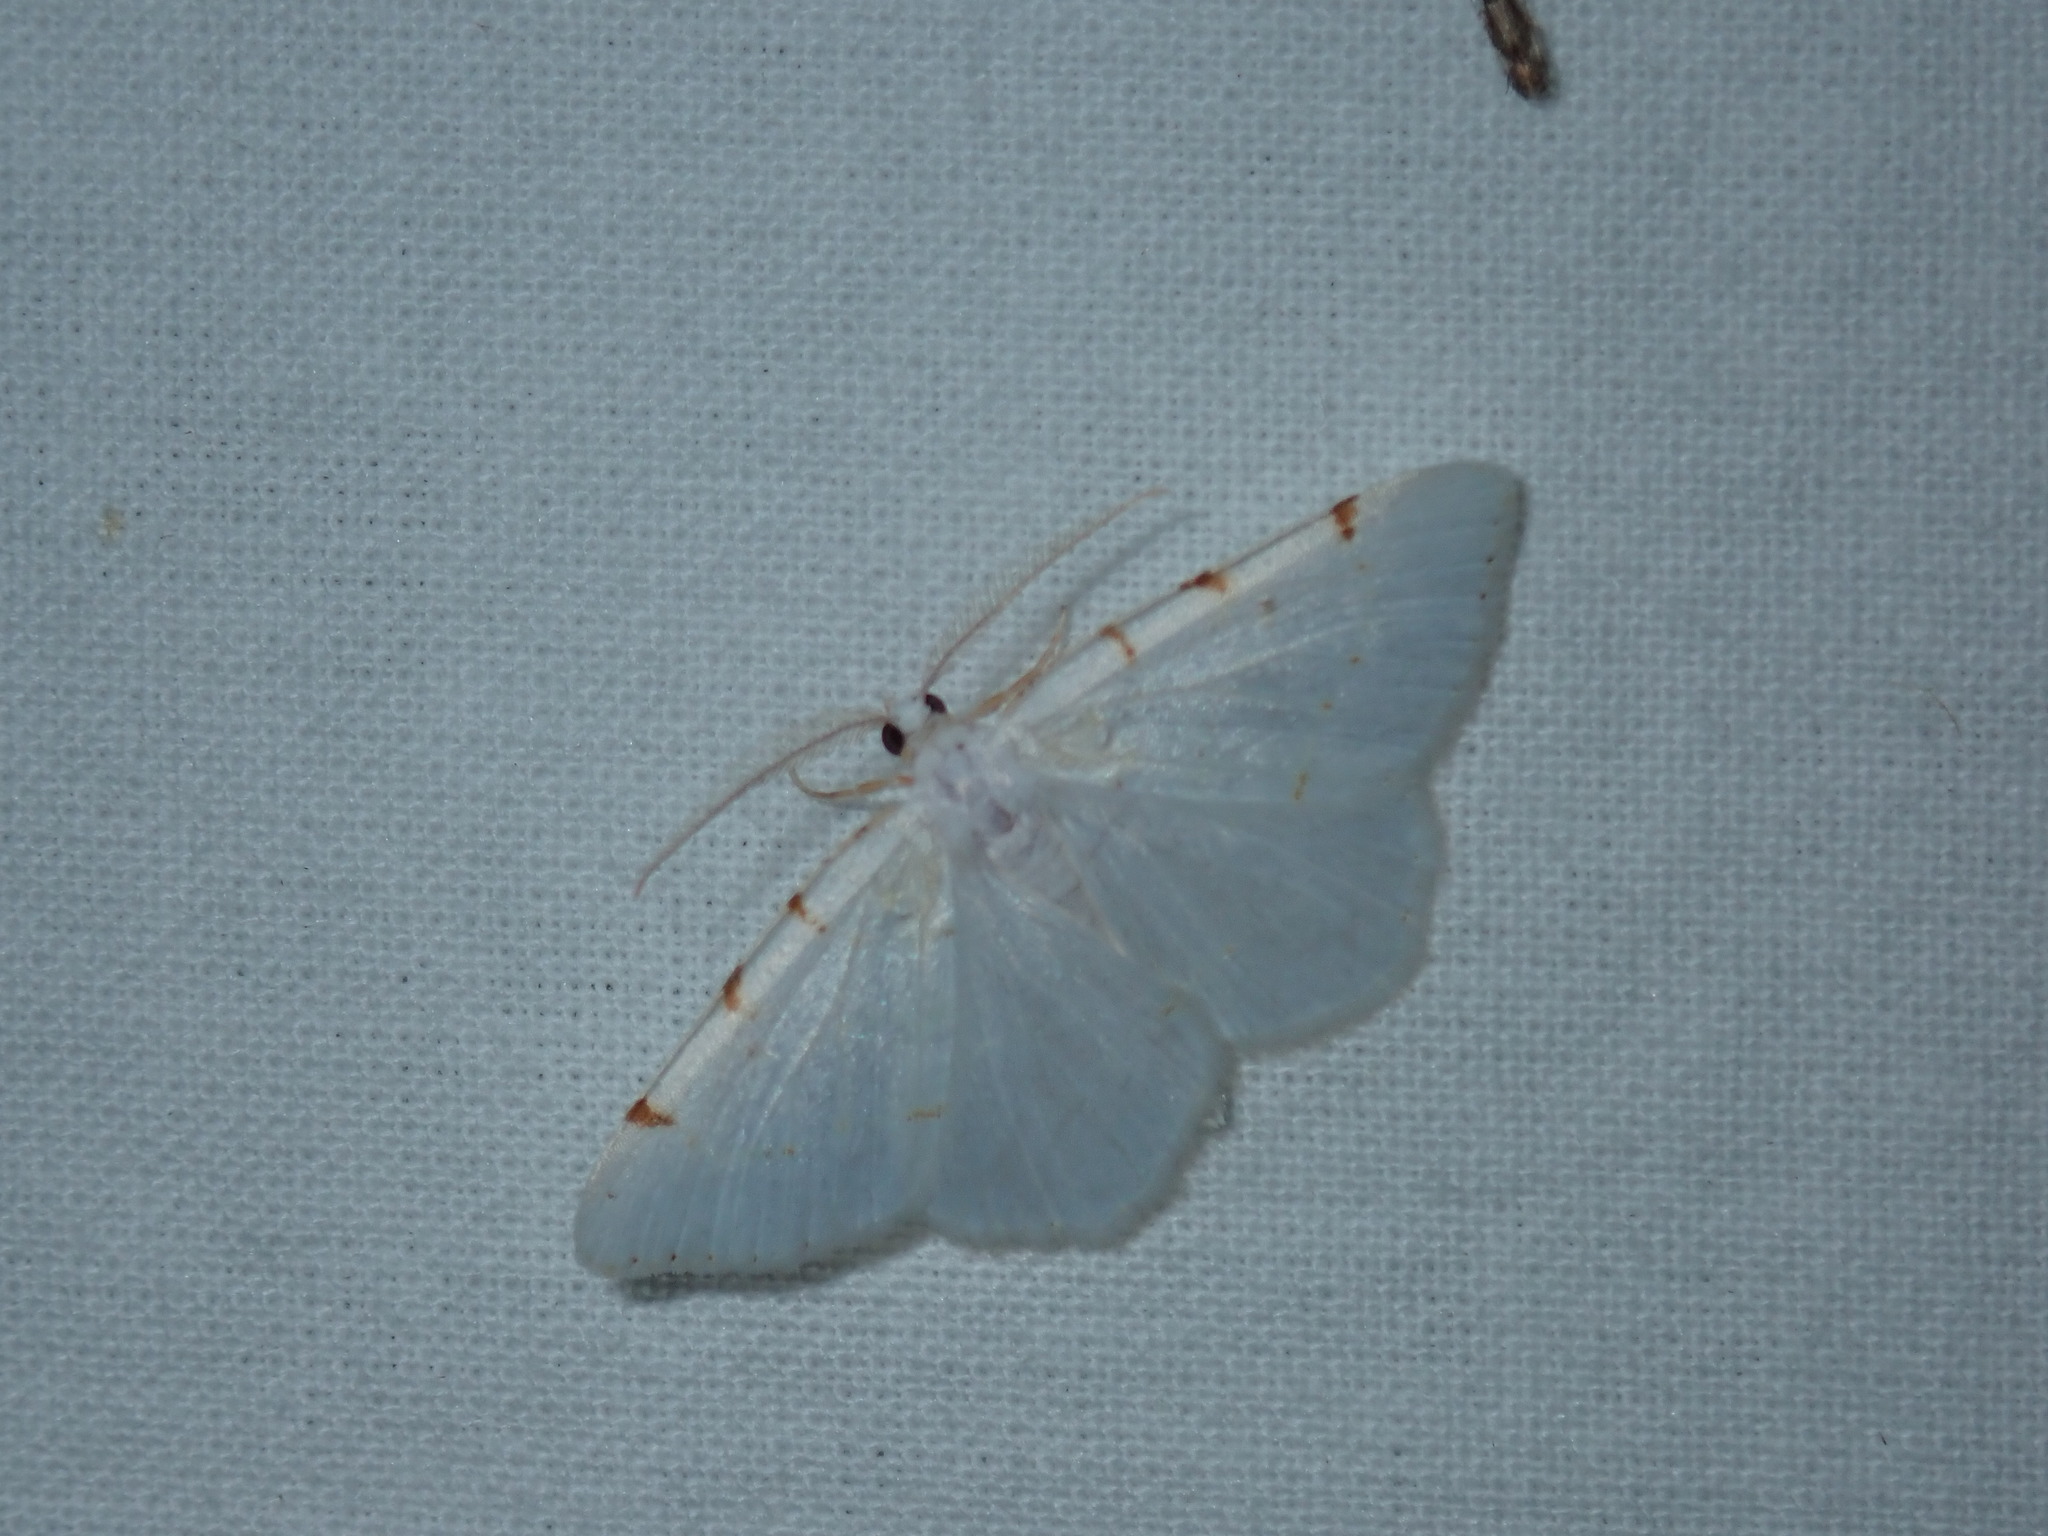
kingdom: Animalia
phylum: Arthropoda
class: Insecta
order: Lepidoptera
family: Geometridae
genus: Macaria
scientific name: Macaria pustularia
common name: Lesser maple spanworm moth
